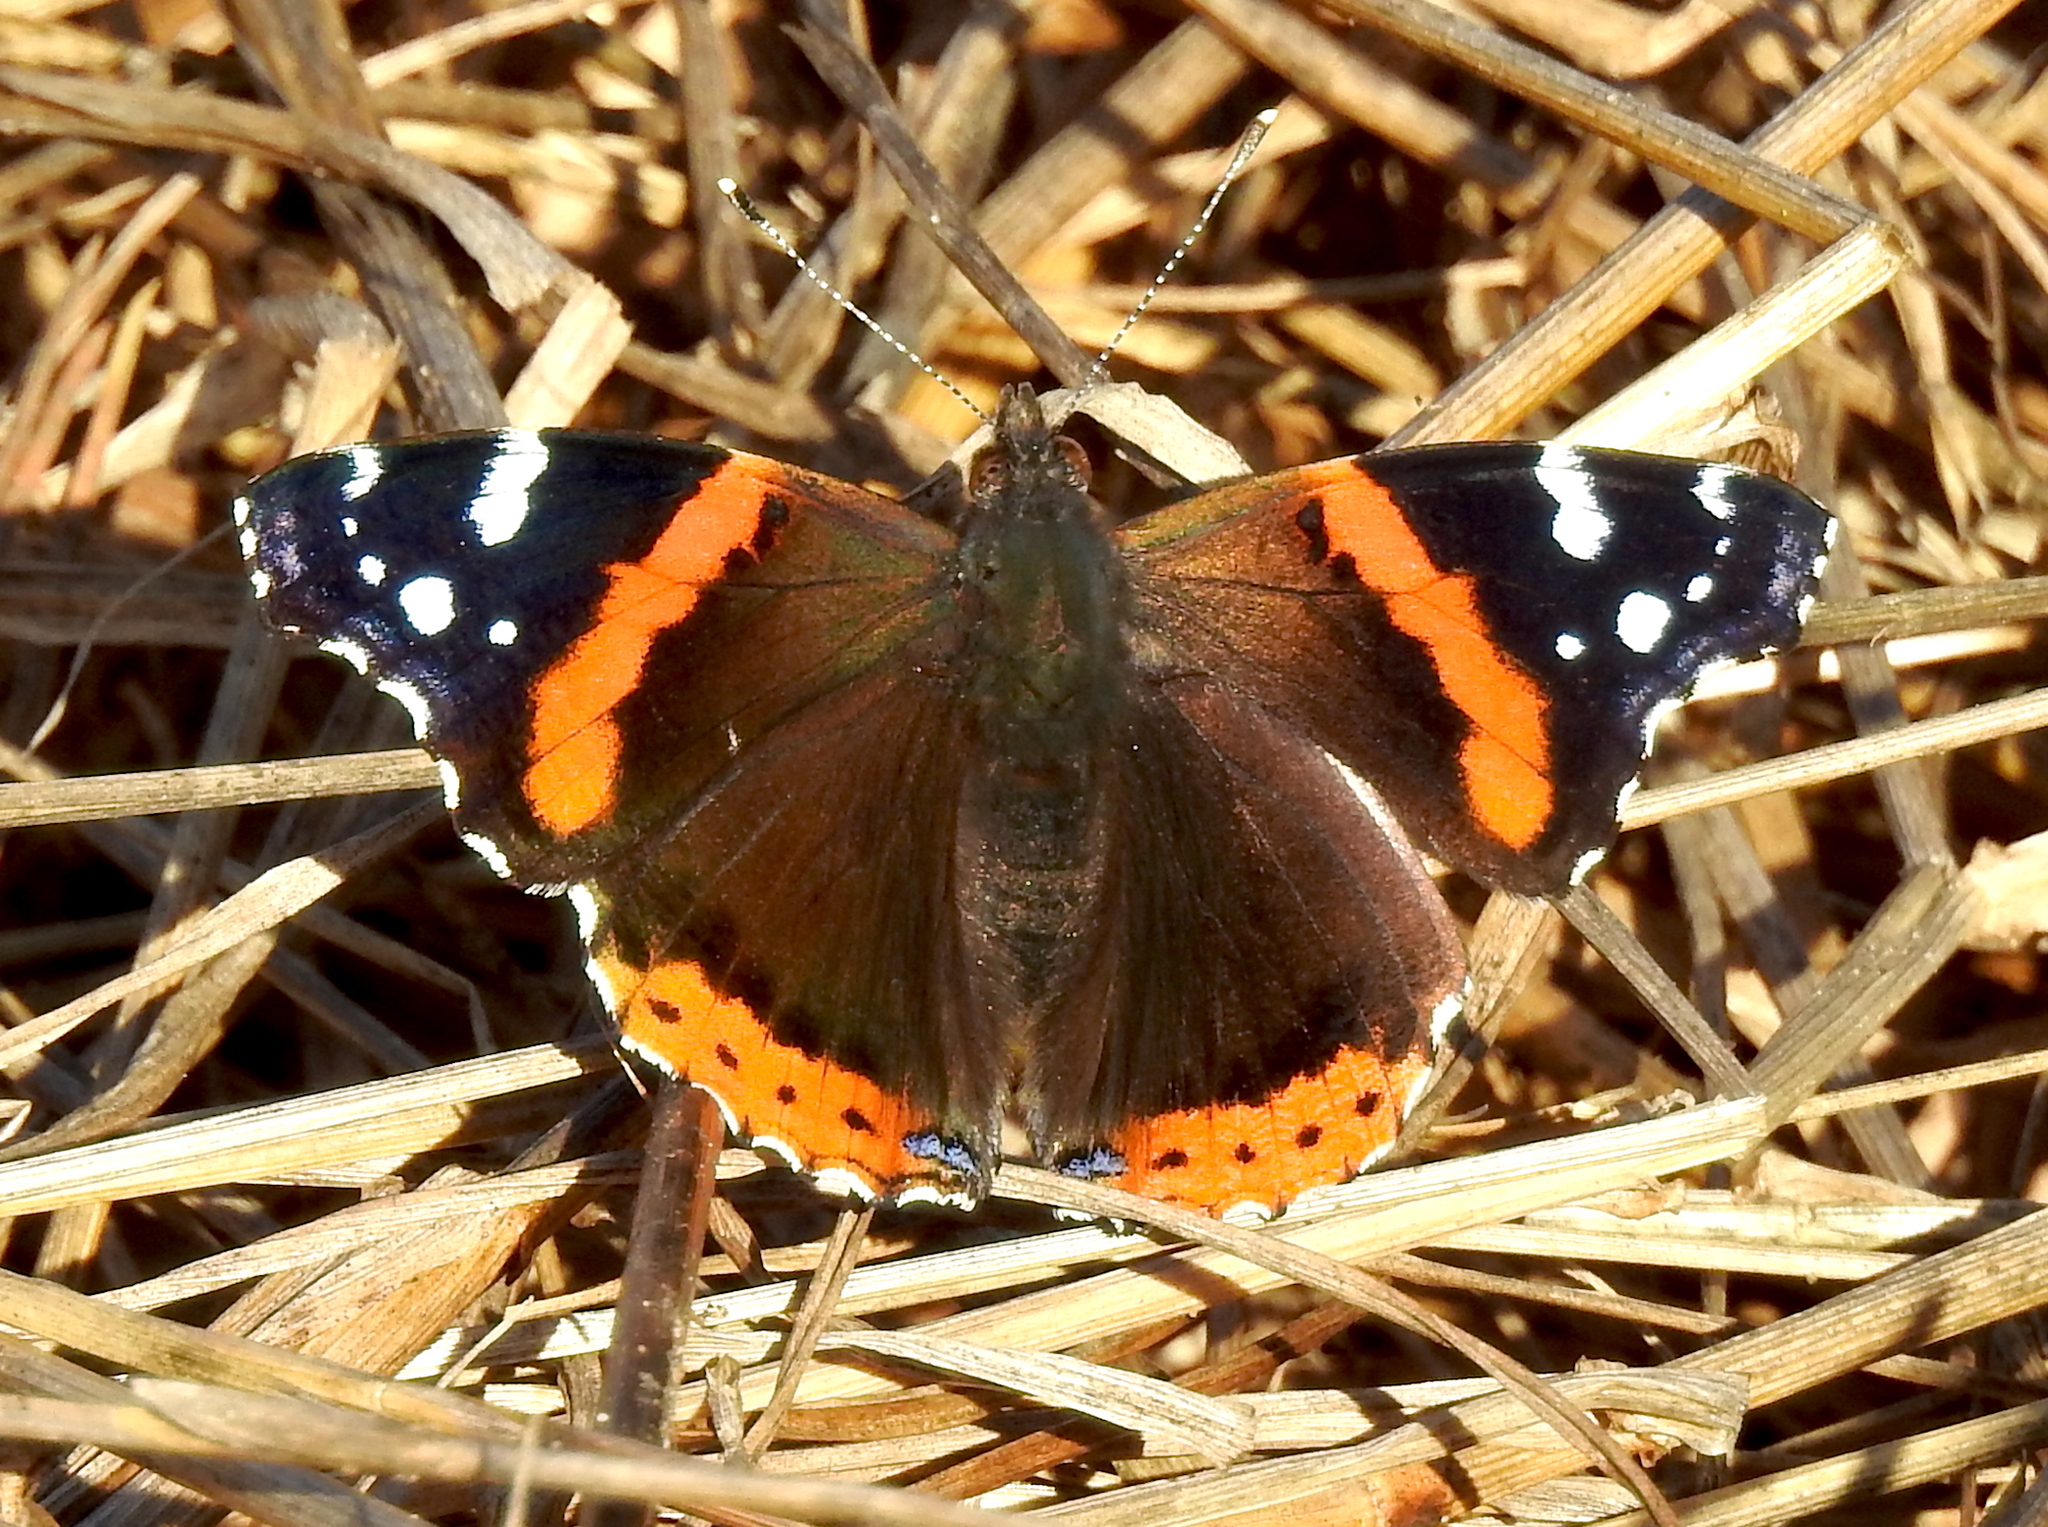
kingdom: Animalia
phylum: Arthropoda
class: Insecta
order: Lepidoptera
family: Nymphalidae
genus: Vanessa
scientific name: Vanessa atalanta
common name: Red admiral
